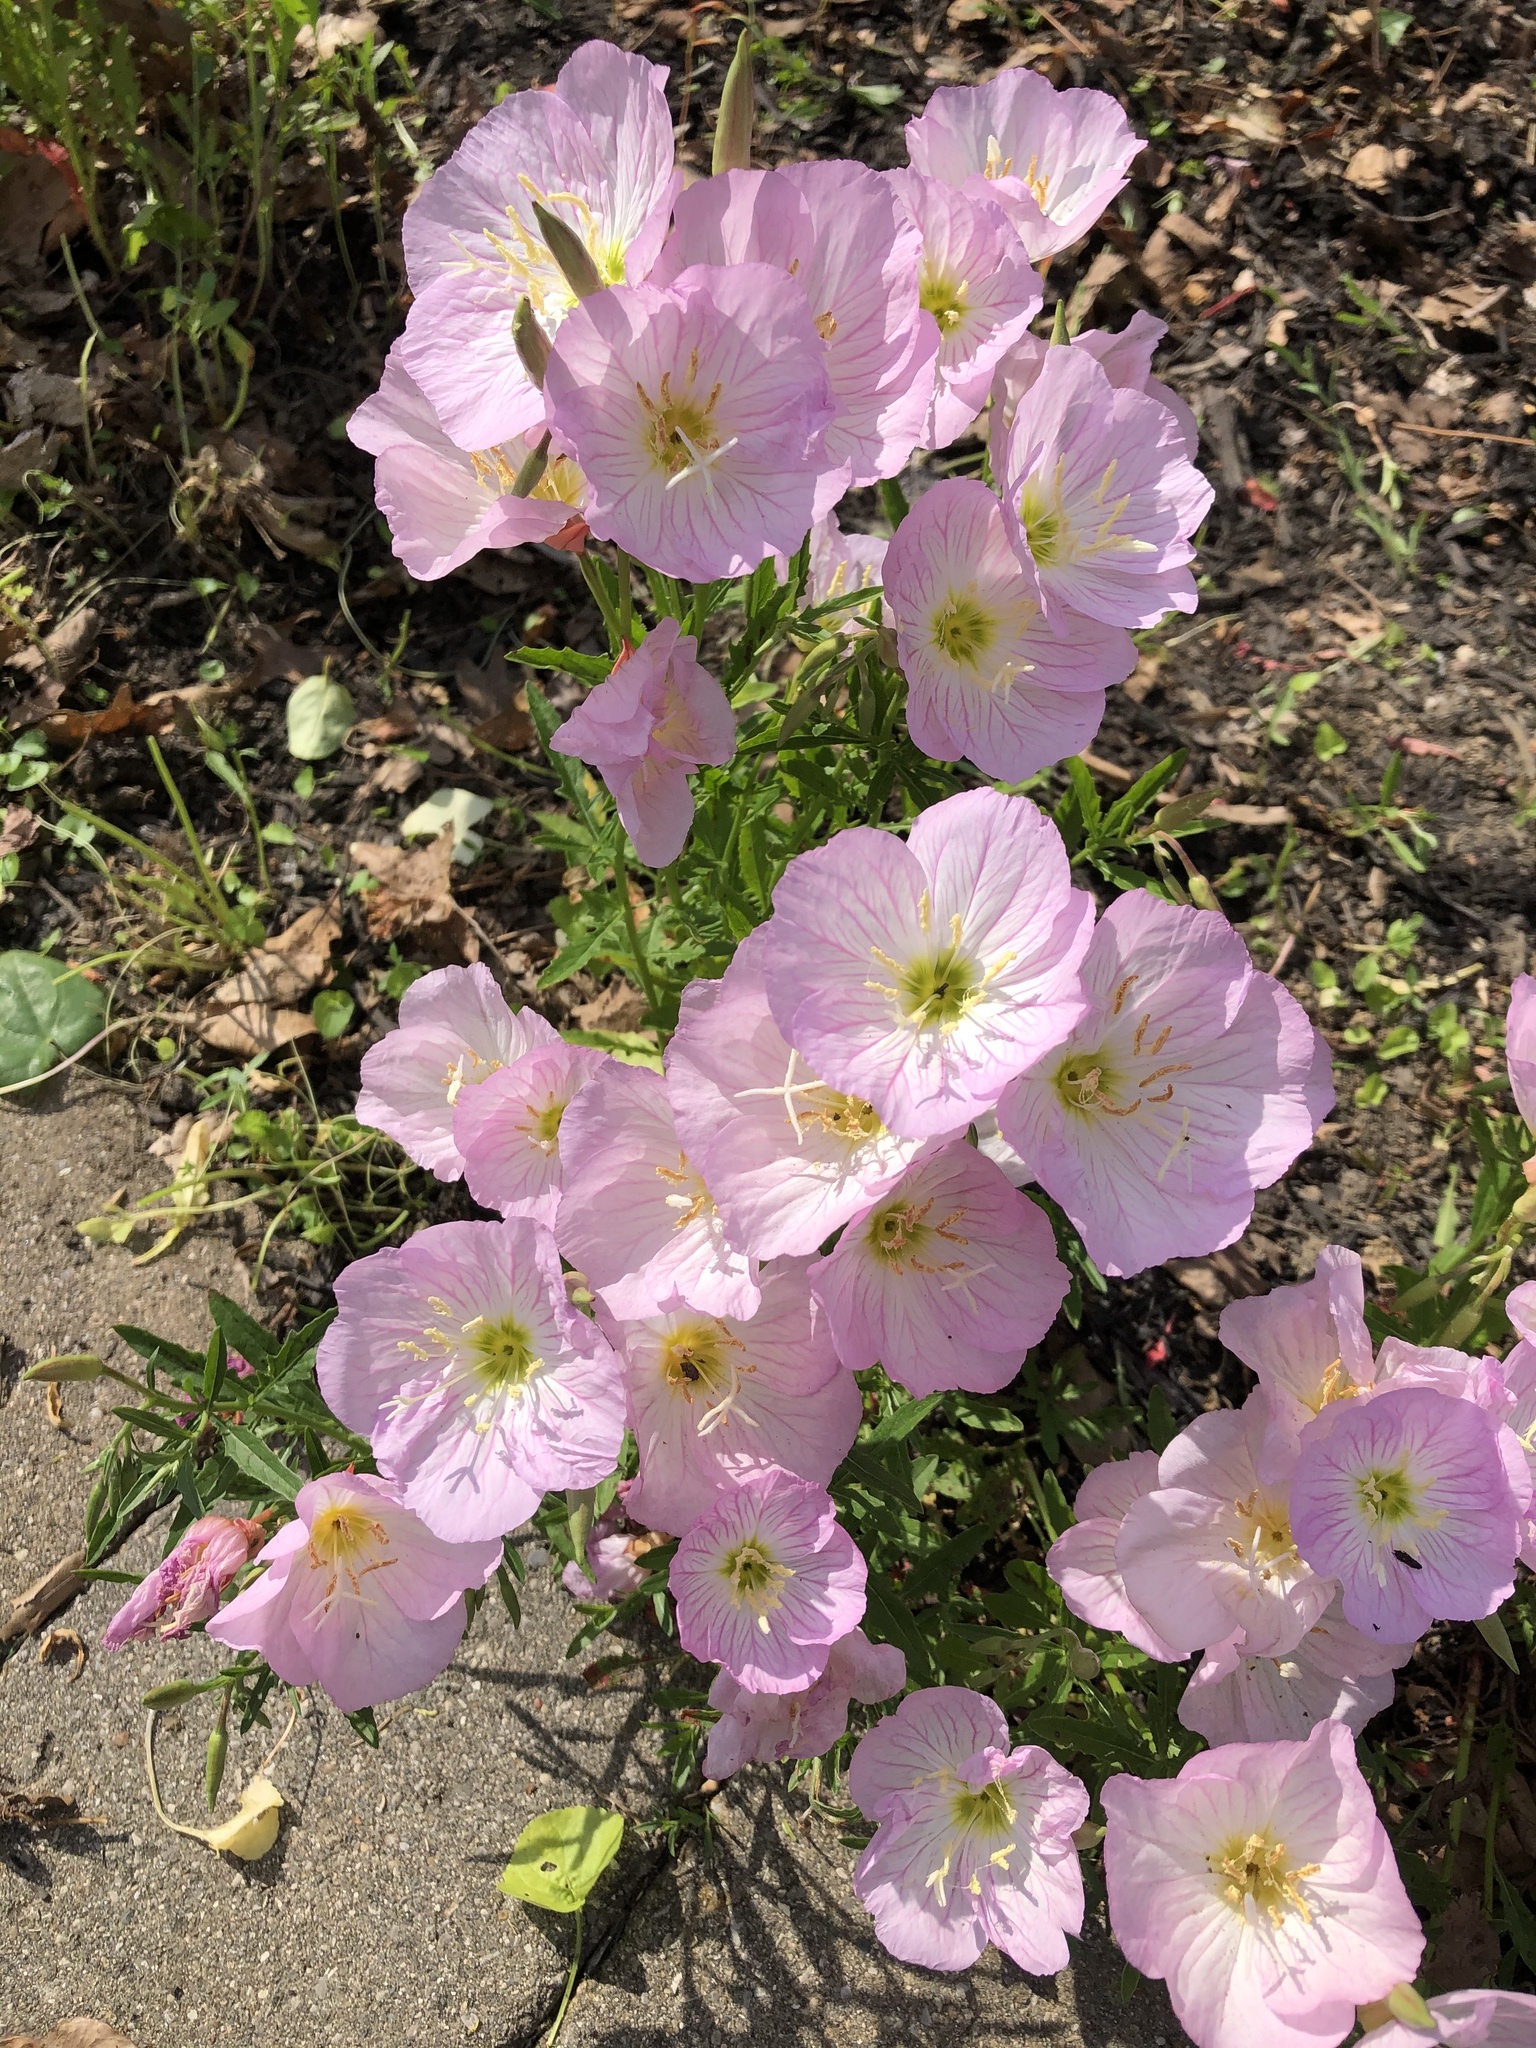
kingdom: Plantae
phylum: Tracheophyta
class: Magnoliopsida
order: Myrtales
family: Onagraceae
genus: Oenothera
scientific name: Oenothera speciosa
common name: White evening-primrose
